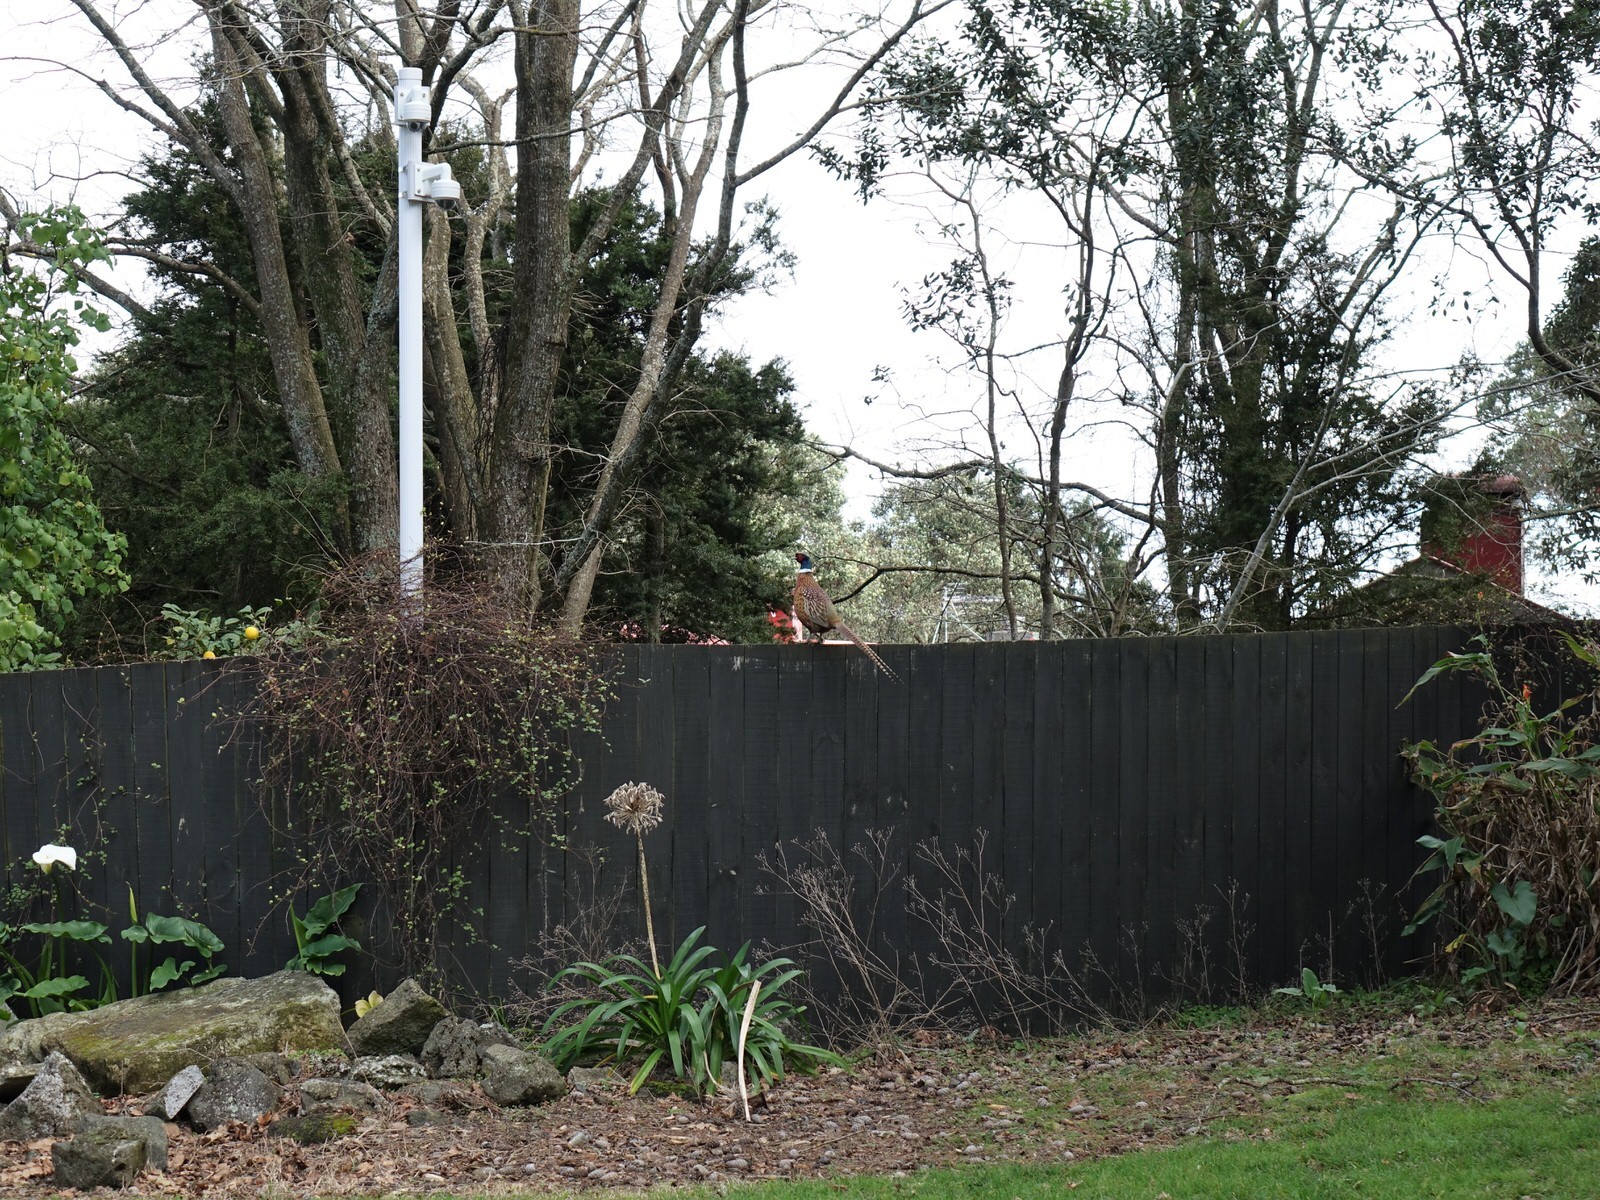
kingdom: Animalia
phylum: Chordata
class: Aves
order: Galliformes
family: Phasianidae
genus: Phasianus
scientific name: Phasianus colchicus
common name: Common pheasant
